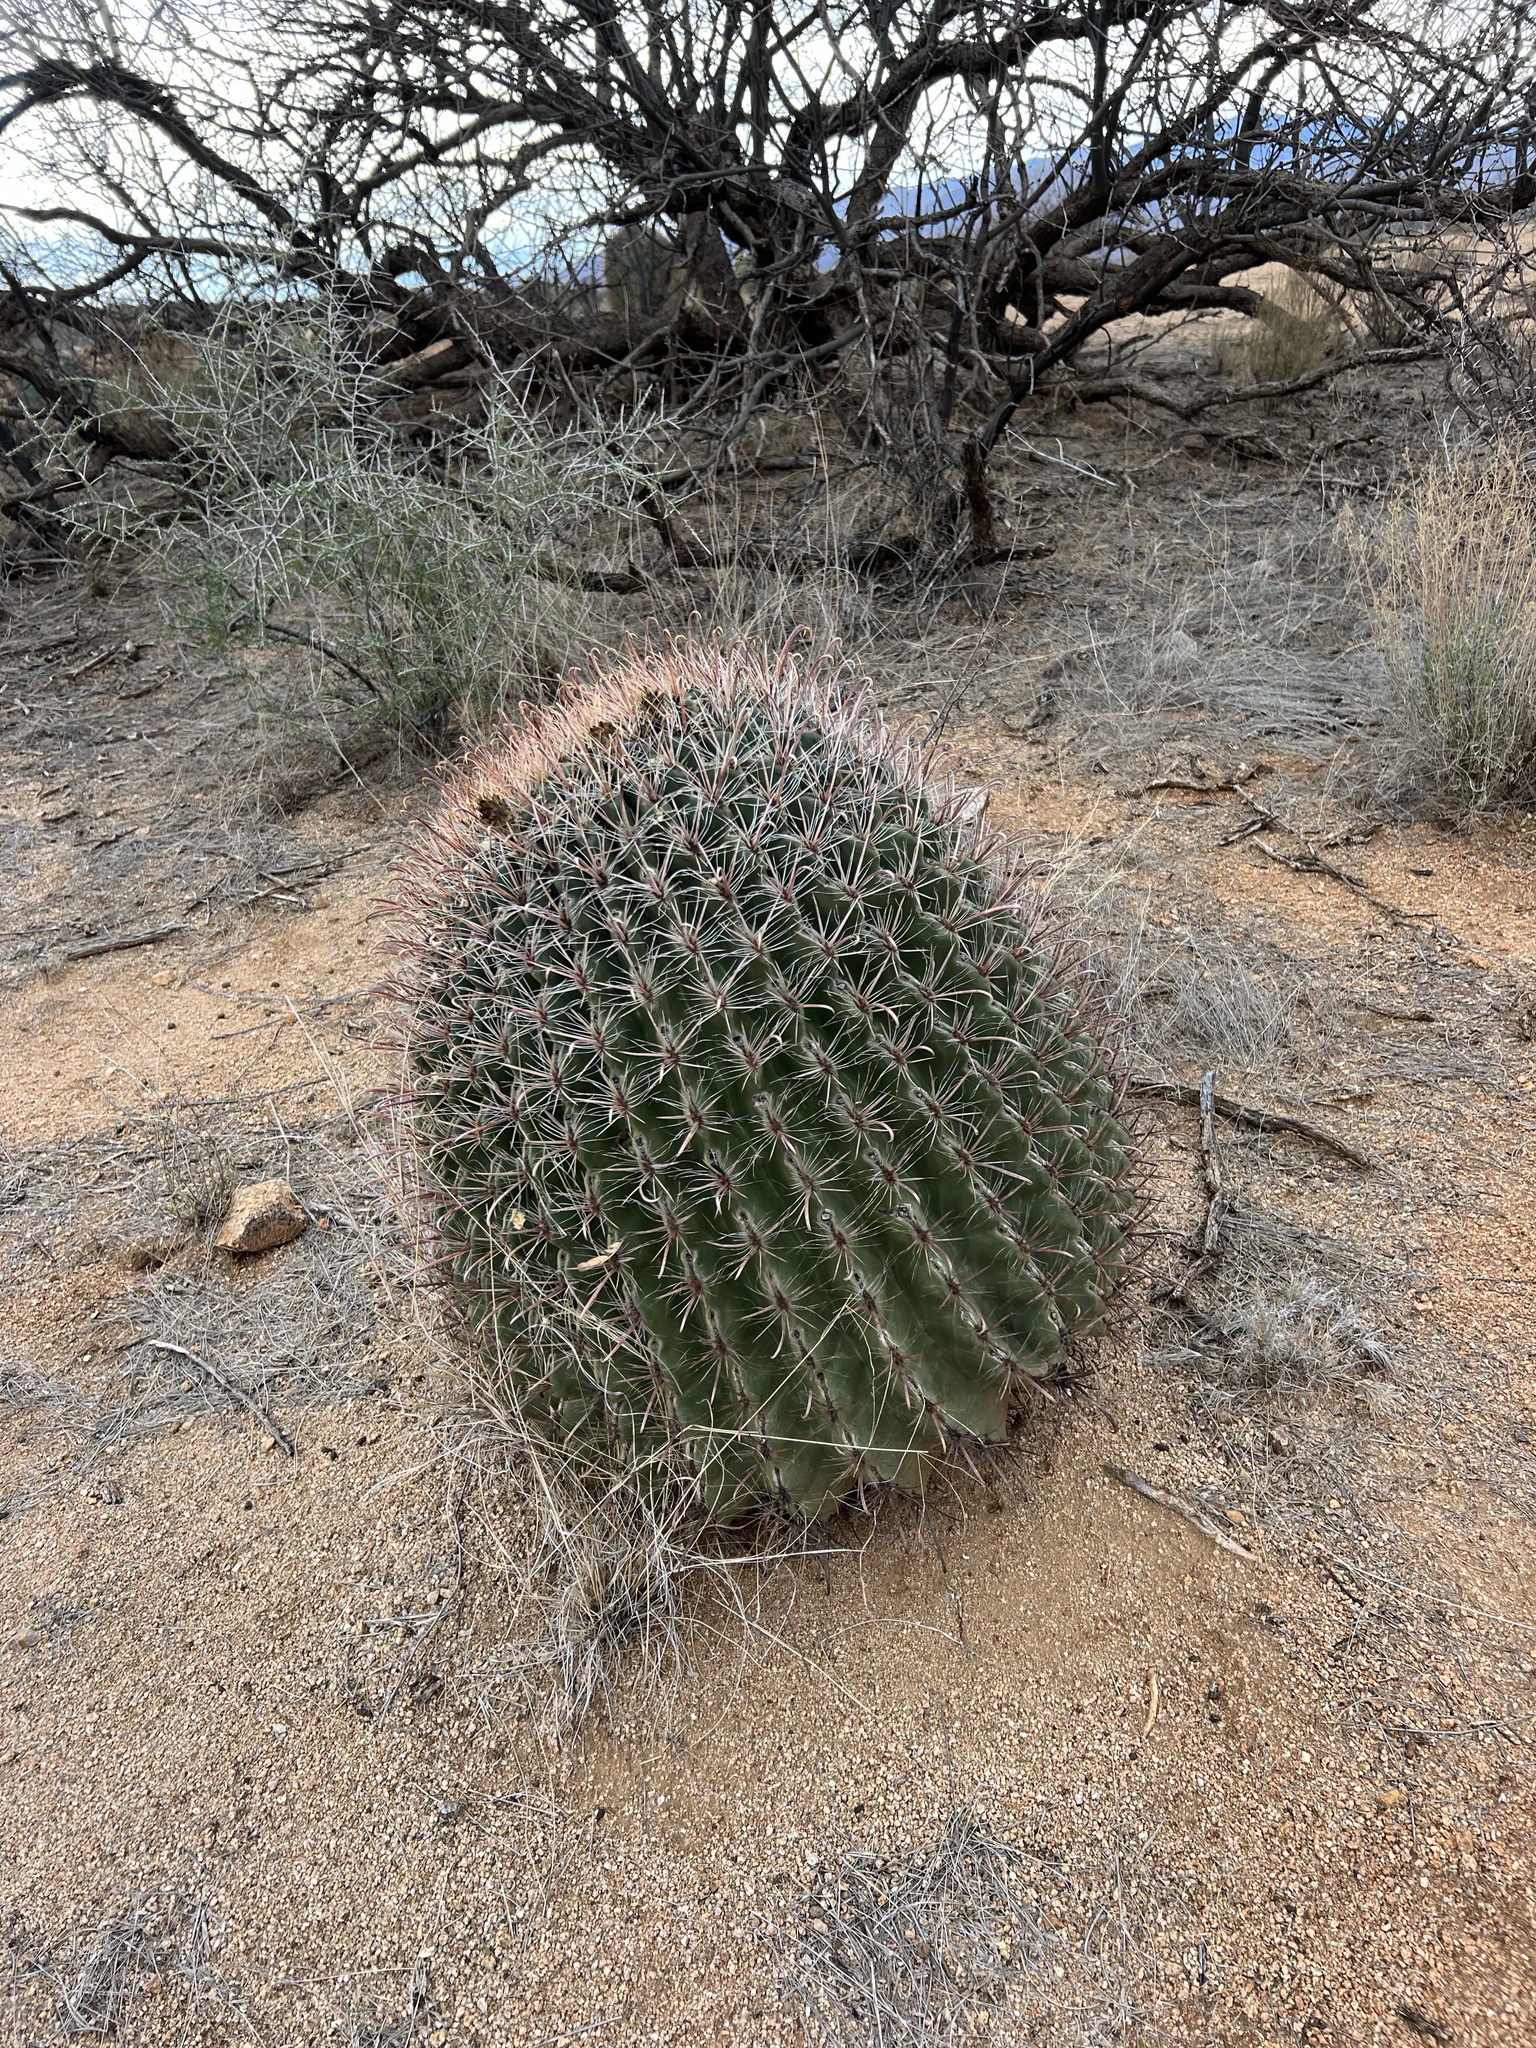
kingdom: Plantae
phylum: Tracheophyta
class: Magnoliopsida
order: Caryophyllales
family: Cactaceae
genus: Ferocactus
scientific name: Ferocactus wislizeni
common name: Candy barrel cactus
